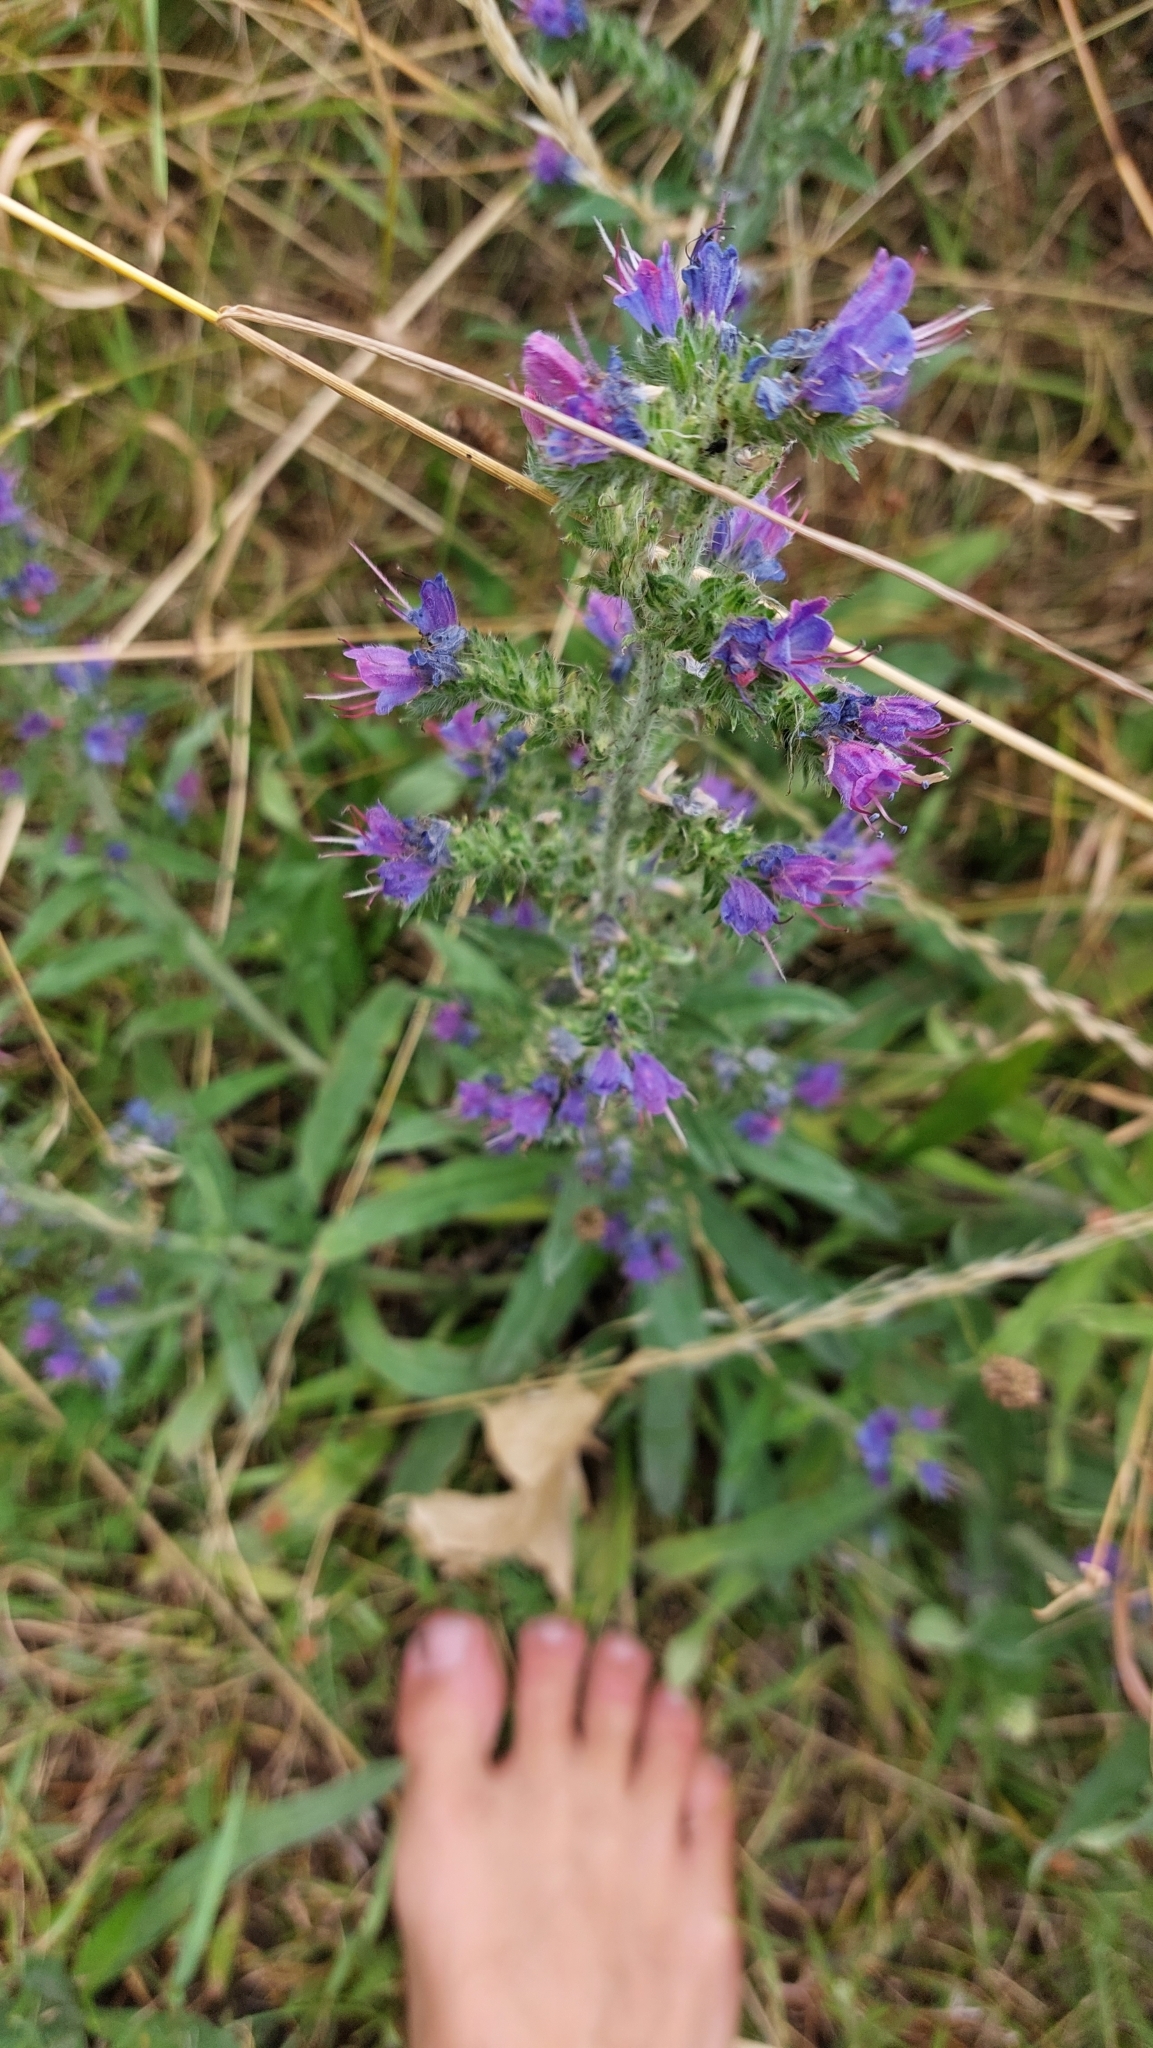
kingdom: Plantae
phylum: Tracheophyta
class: Magnoliopsida
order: Boraginales
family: Boraginaceae
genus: Echium
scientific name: Echium vulgare
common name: Common viper's bugloss
